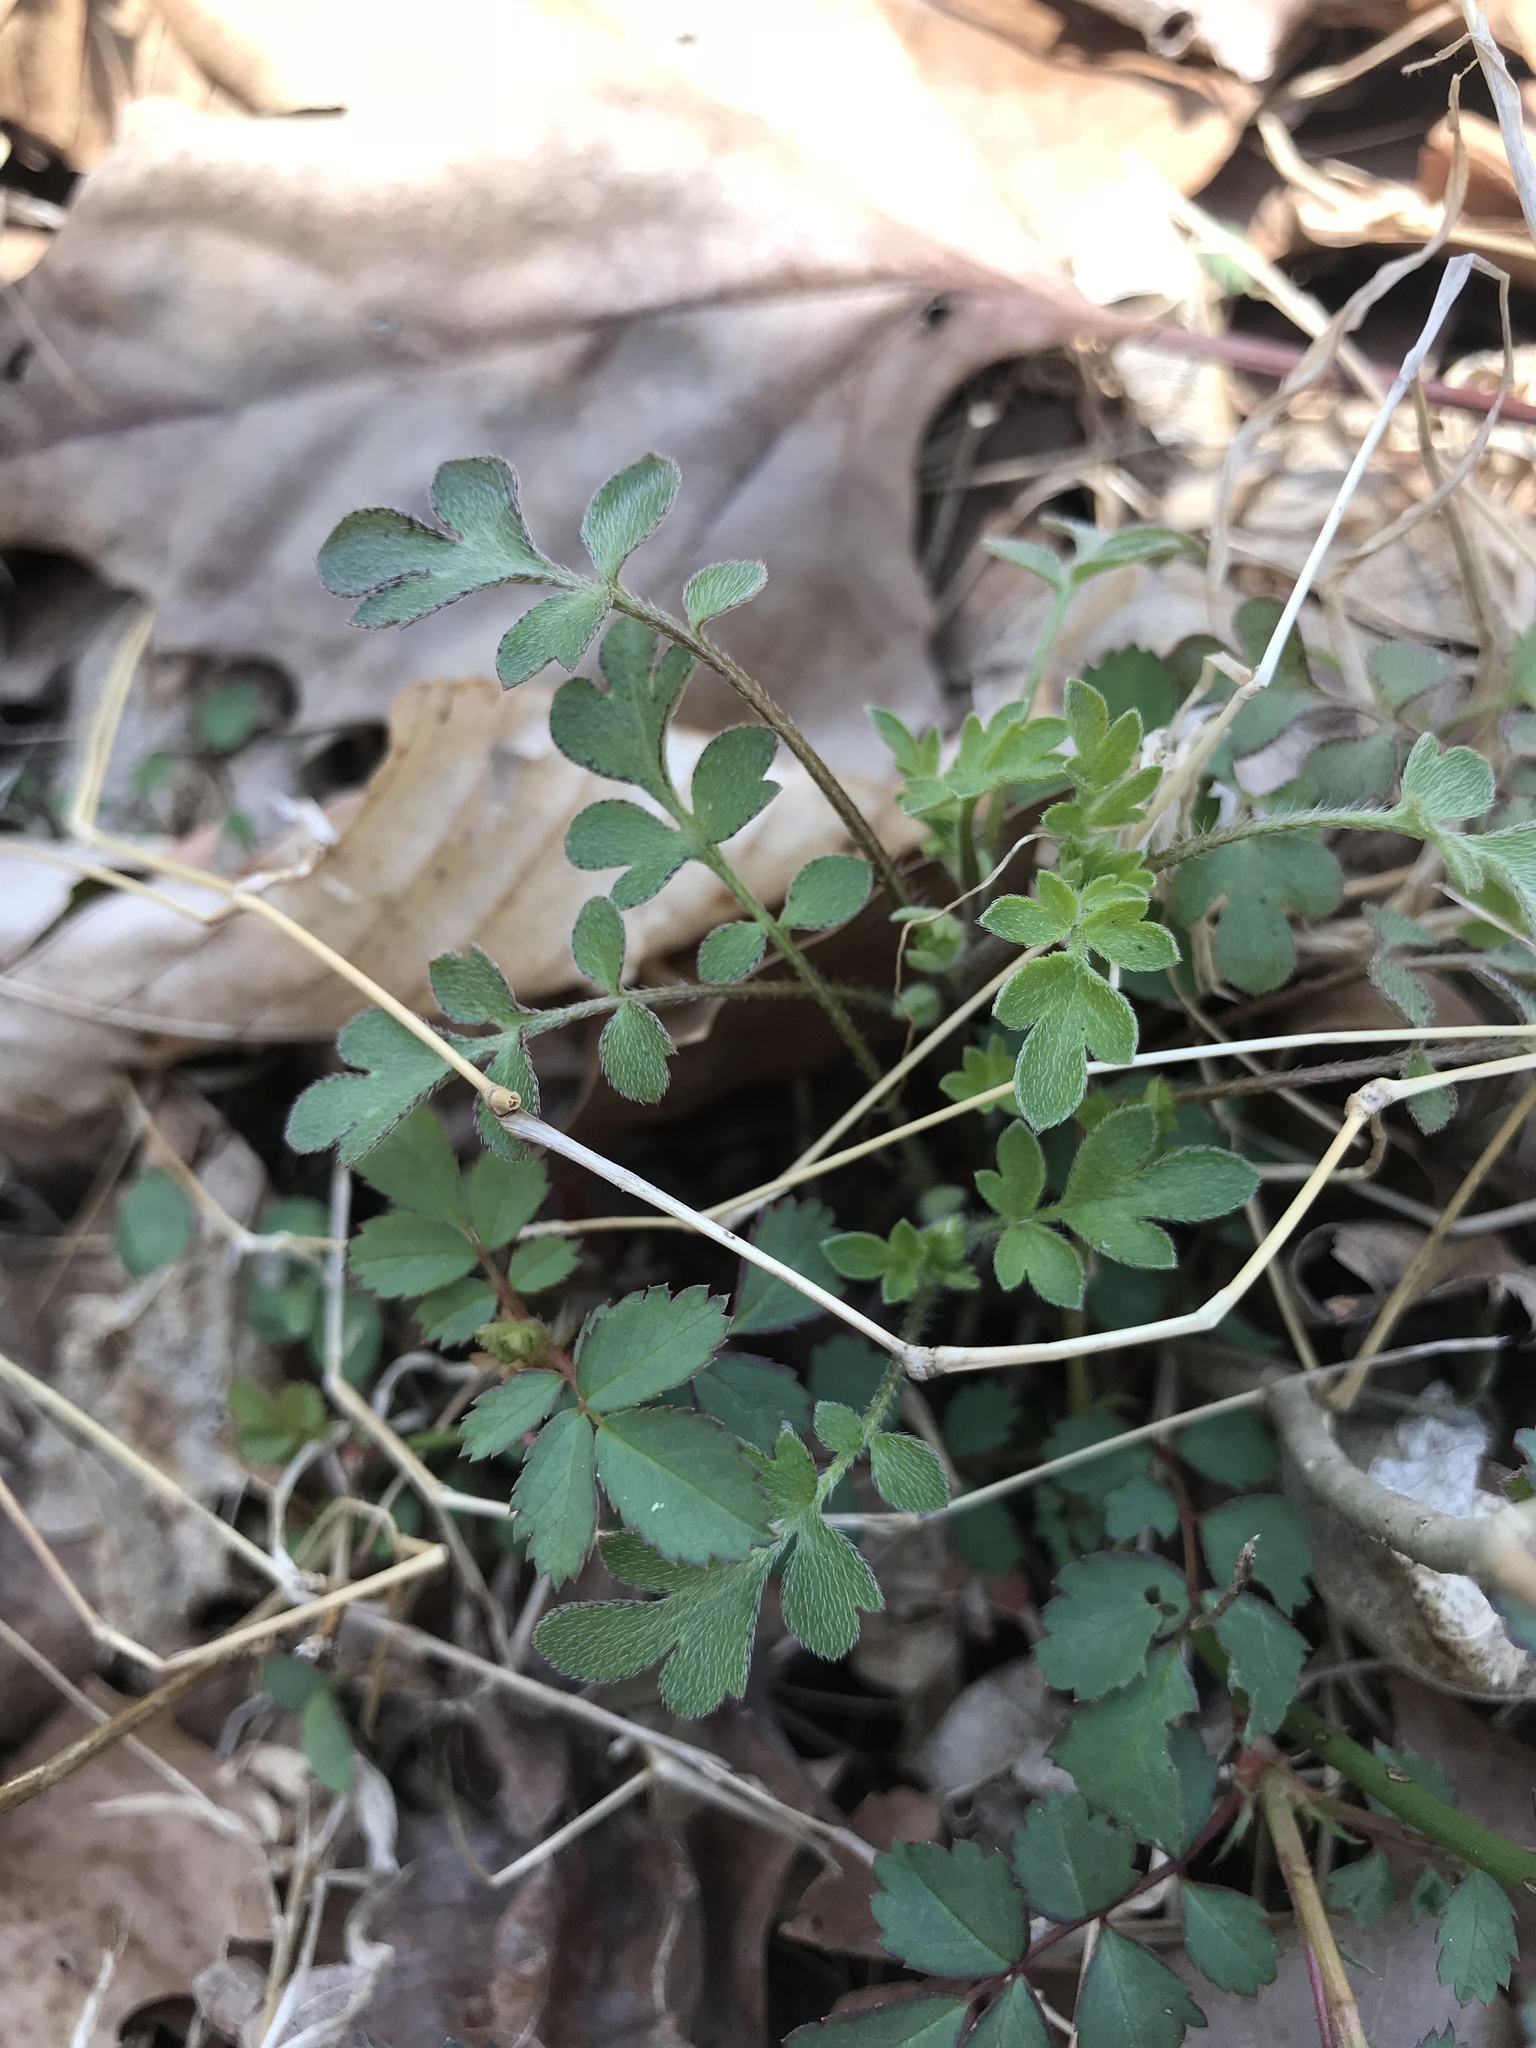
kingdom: Plantae
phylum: Tracheophyta
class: Magnoliopsida
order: Boraginales
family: Hydrophyllaceae
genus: Phacelia
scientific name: Phacelia covillei
